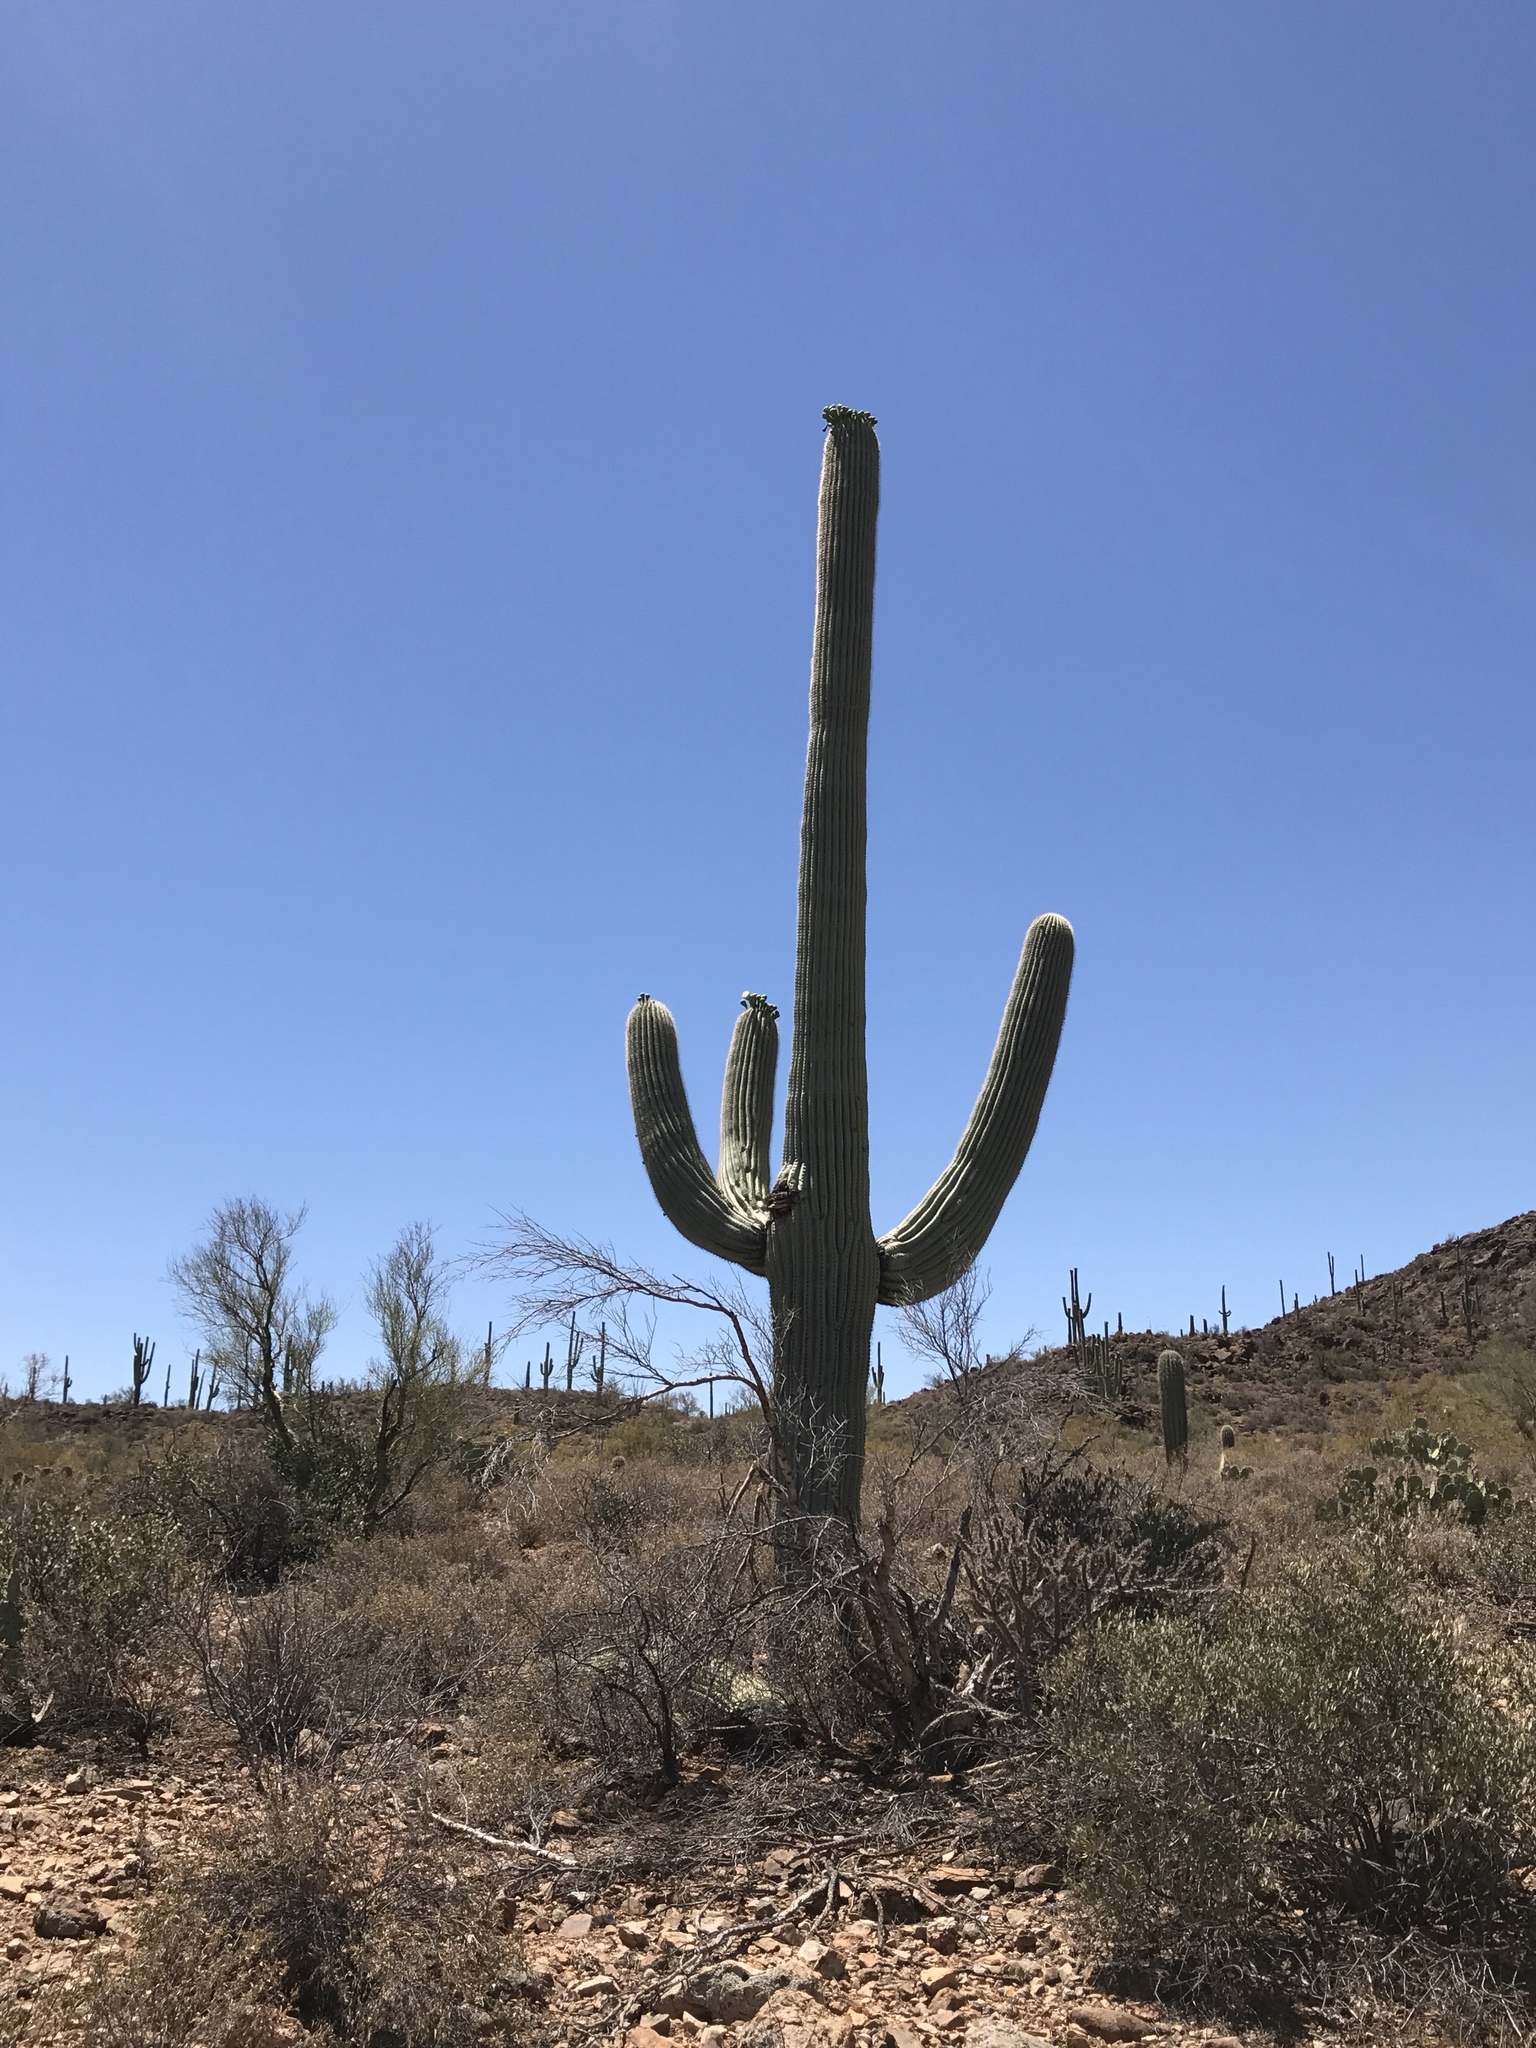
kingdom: Plantae
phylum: Tracheophyta
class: Magnoliopsida
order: Caryophyllales
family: Cactaceae
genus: Carnegiea
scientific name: Carnegiea gigantea
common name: Saguaro
